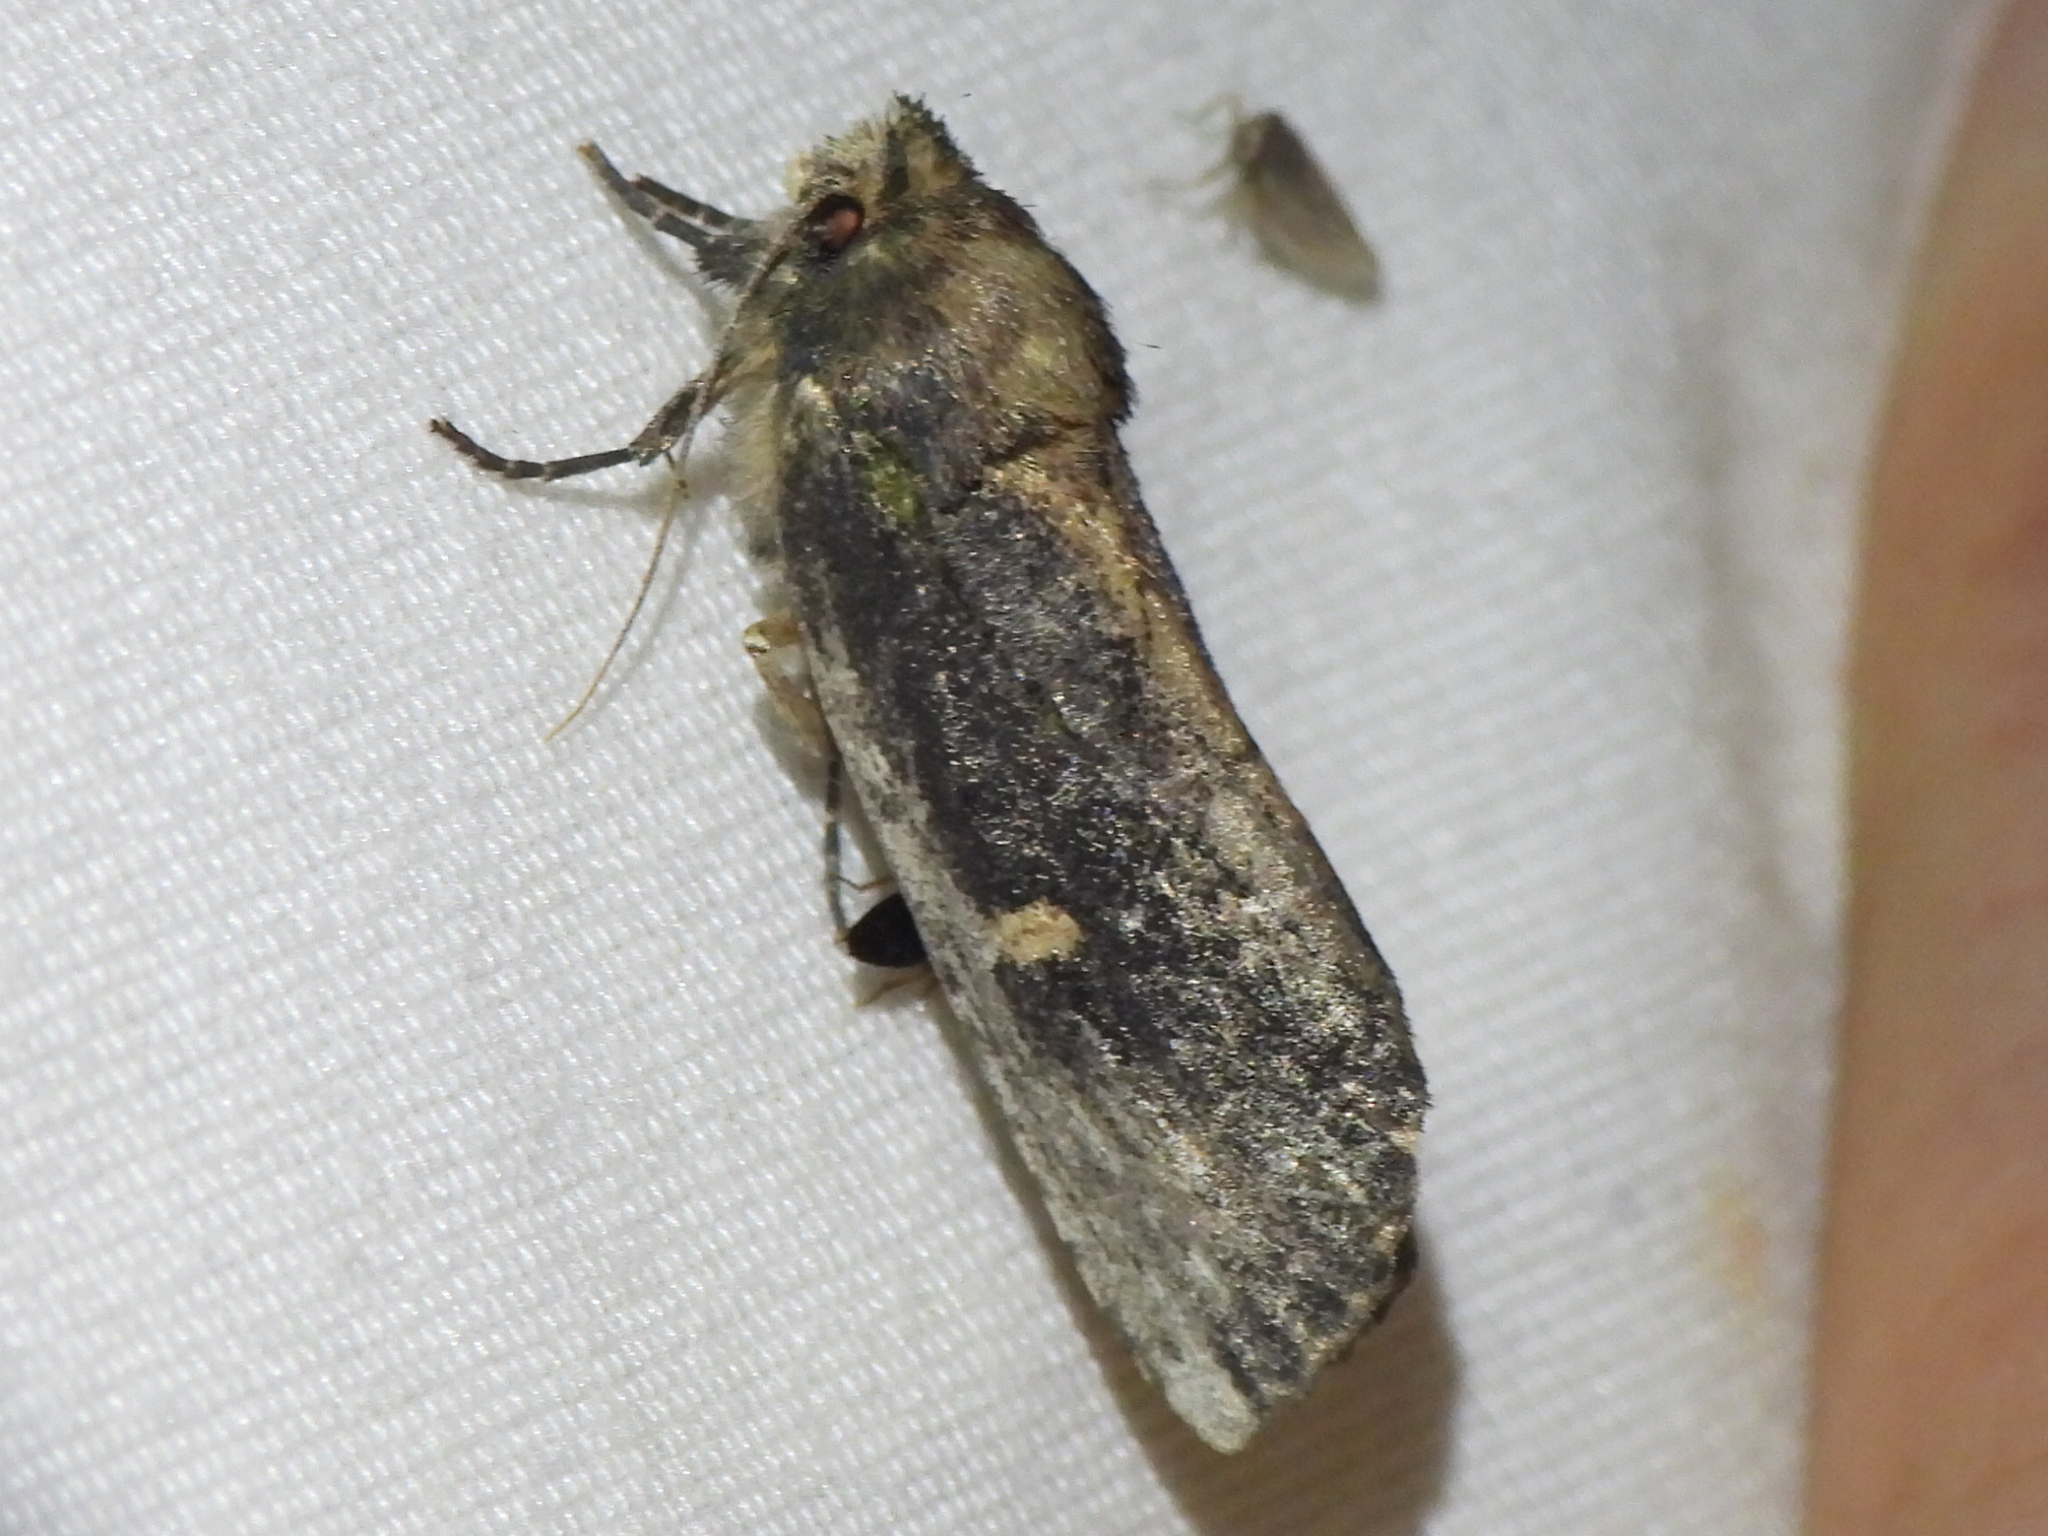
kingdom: Animalia
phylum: Arthropoda
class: Insecta
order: Lepidoptera
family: Notodontidae
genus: Schizura
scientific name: Schizura ipomaeae
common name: Morning-glory prominent
